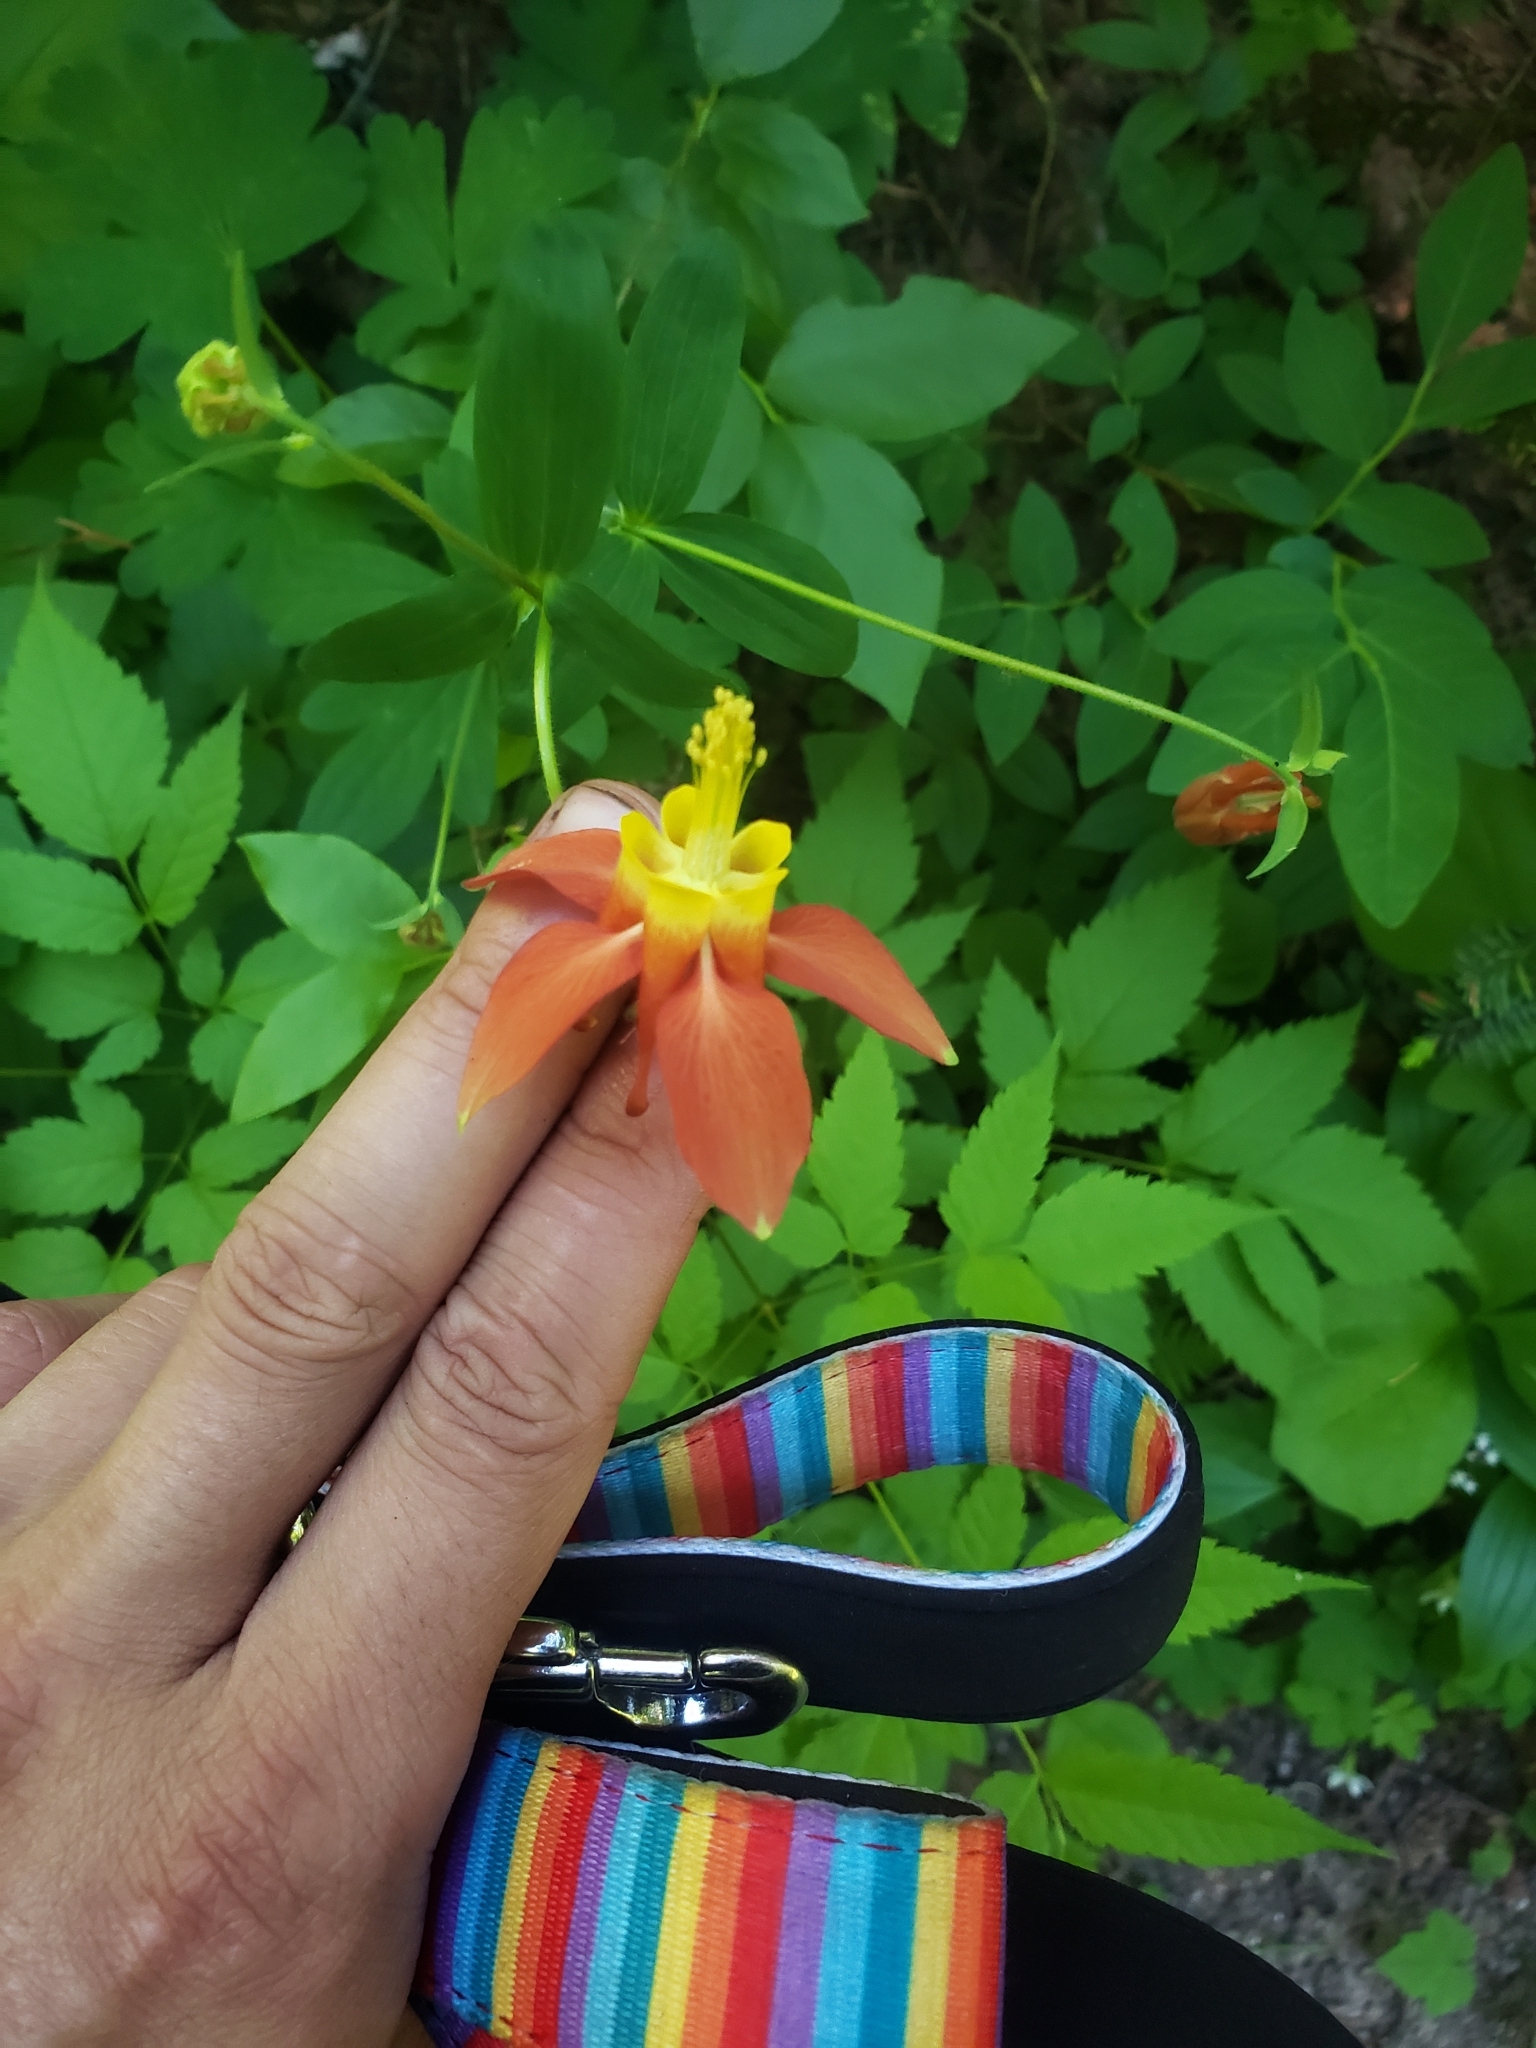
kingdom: Plantae
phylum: Tracheophyta
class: Magnoliopsida
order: Ranunculales
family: Ranunculaceae
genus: Aquilegia
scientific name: Aquilegia formosa
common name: Sitka columbine
